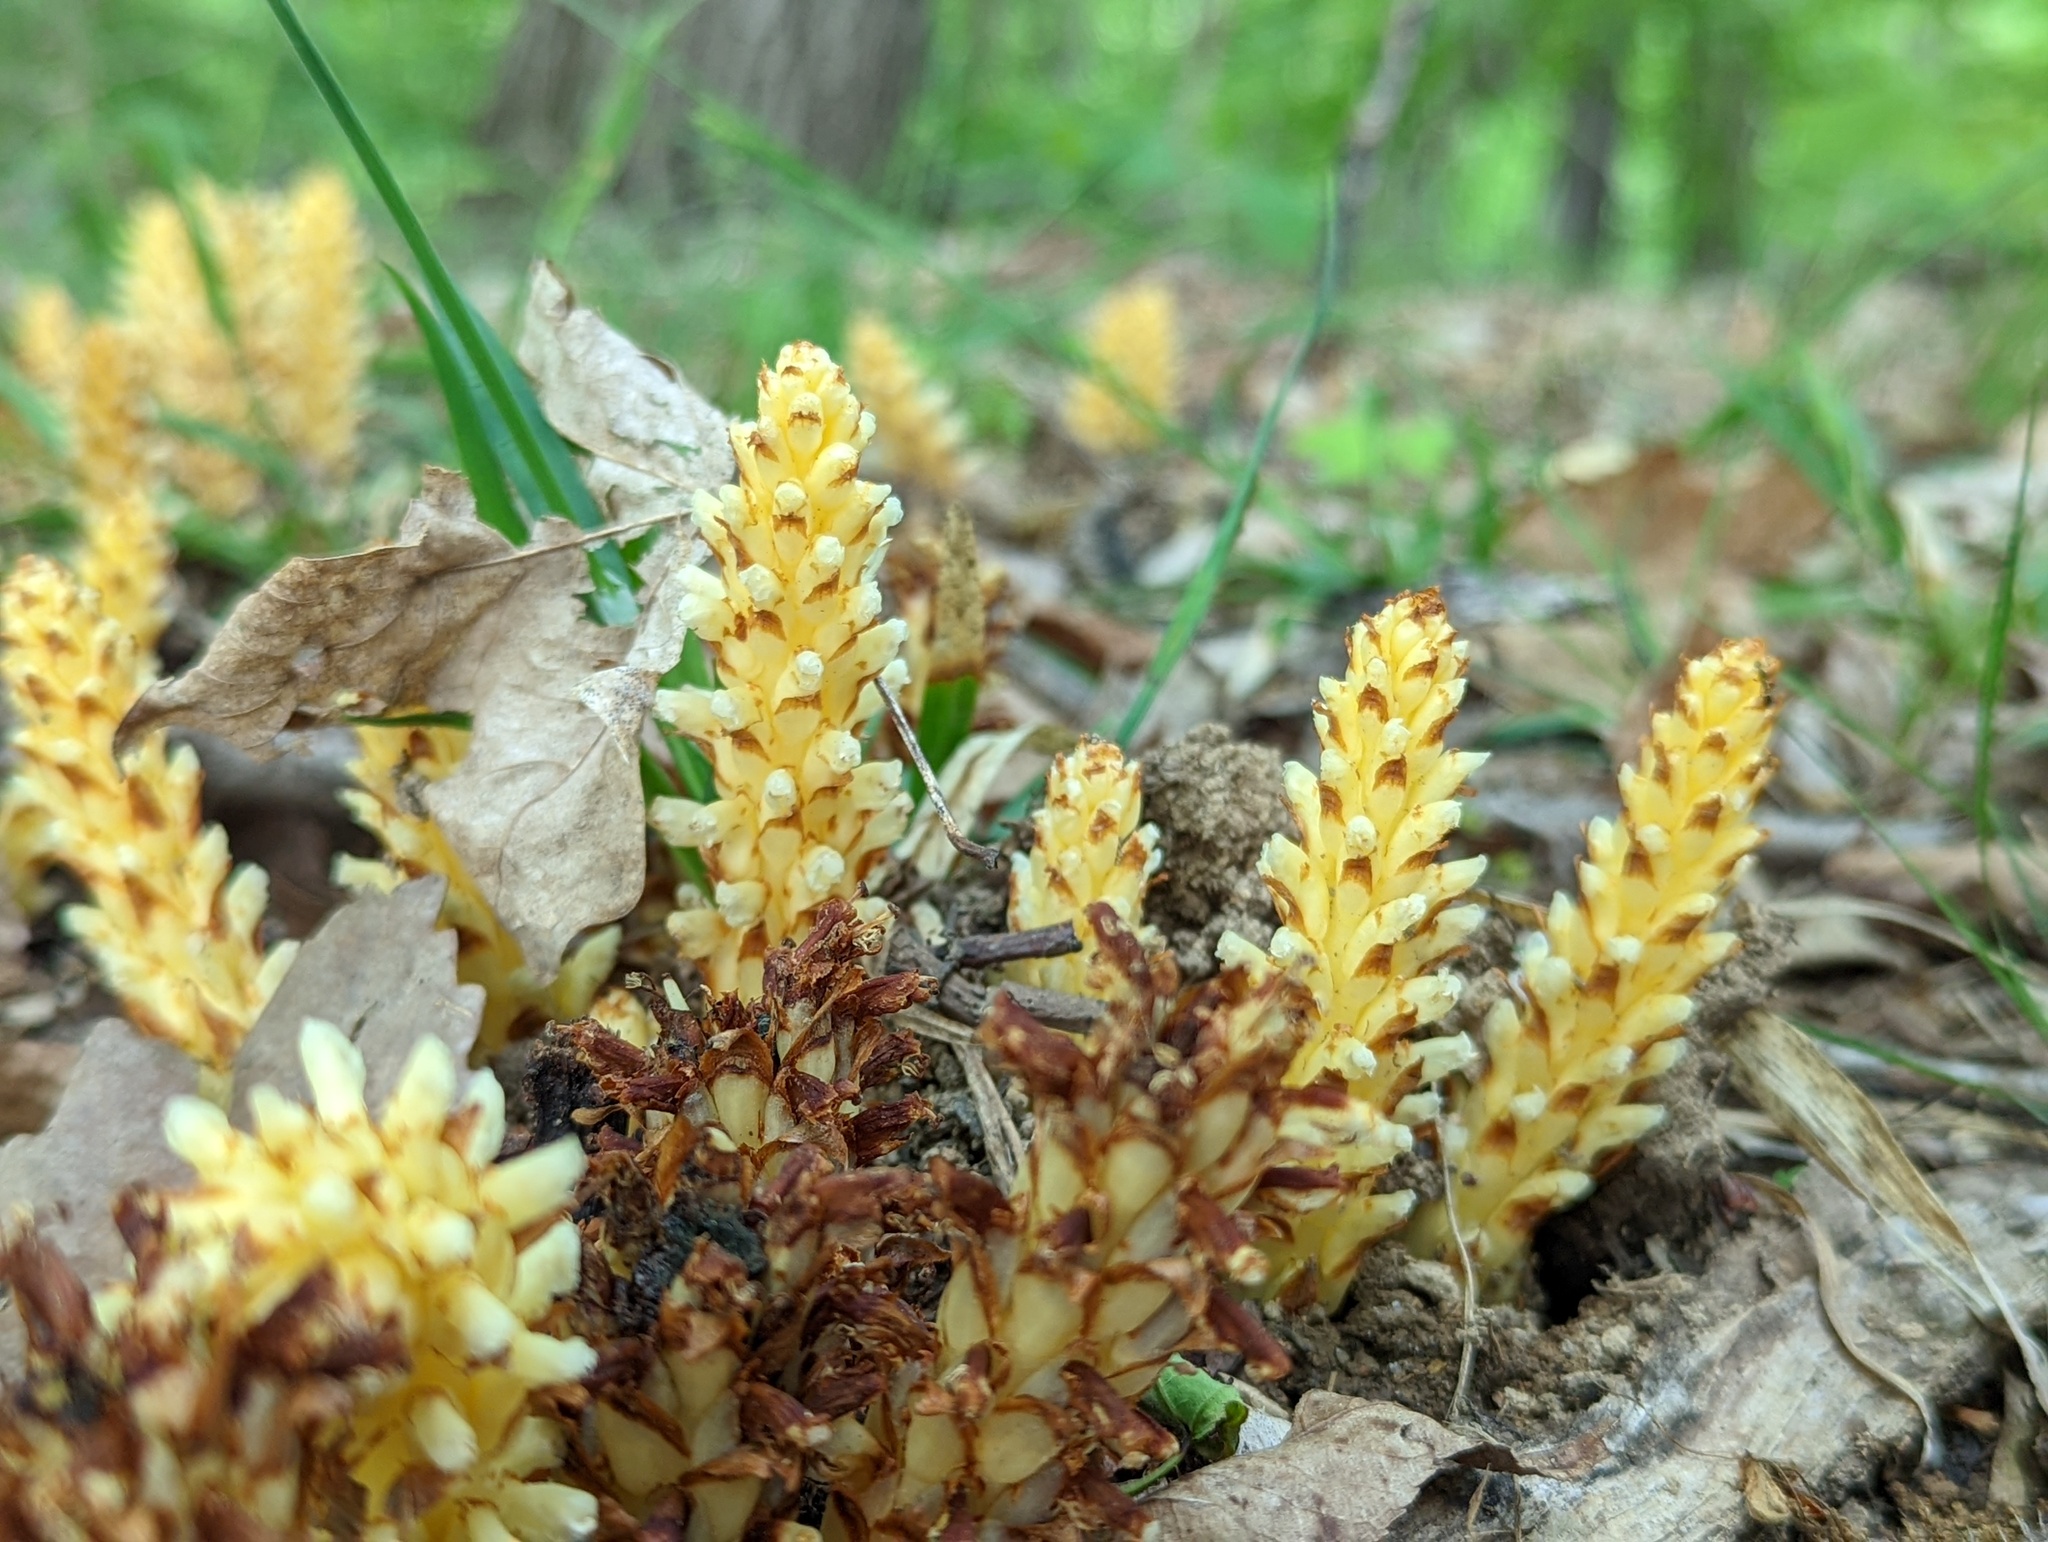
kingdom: Plantae
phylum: Tracheophyta
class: Magnoliopsida
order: Lamiales
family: Orobanchaceae
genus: Conopholis
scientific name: Conopholis americana
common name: American cancer-root
